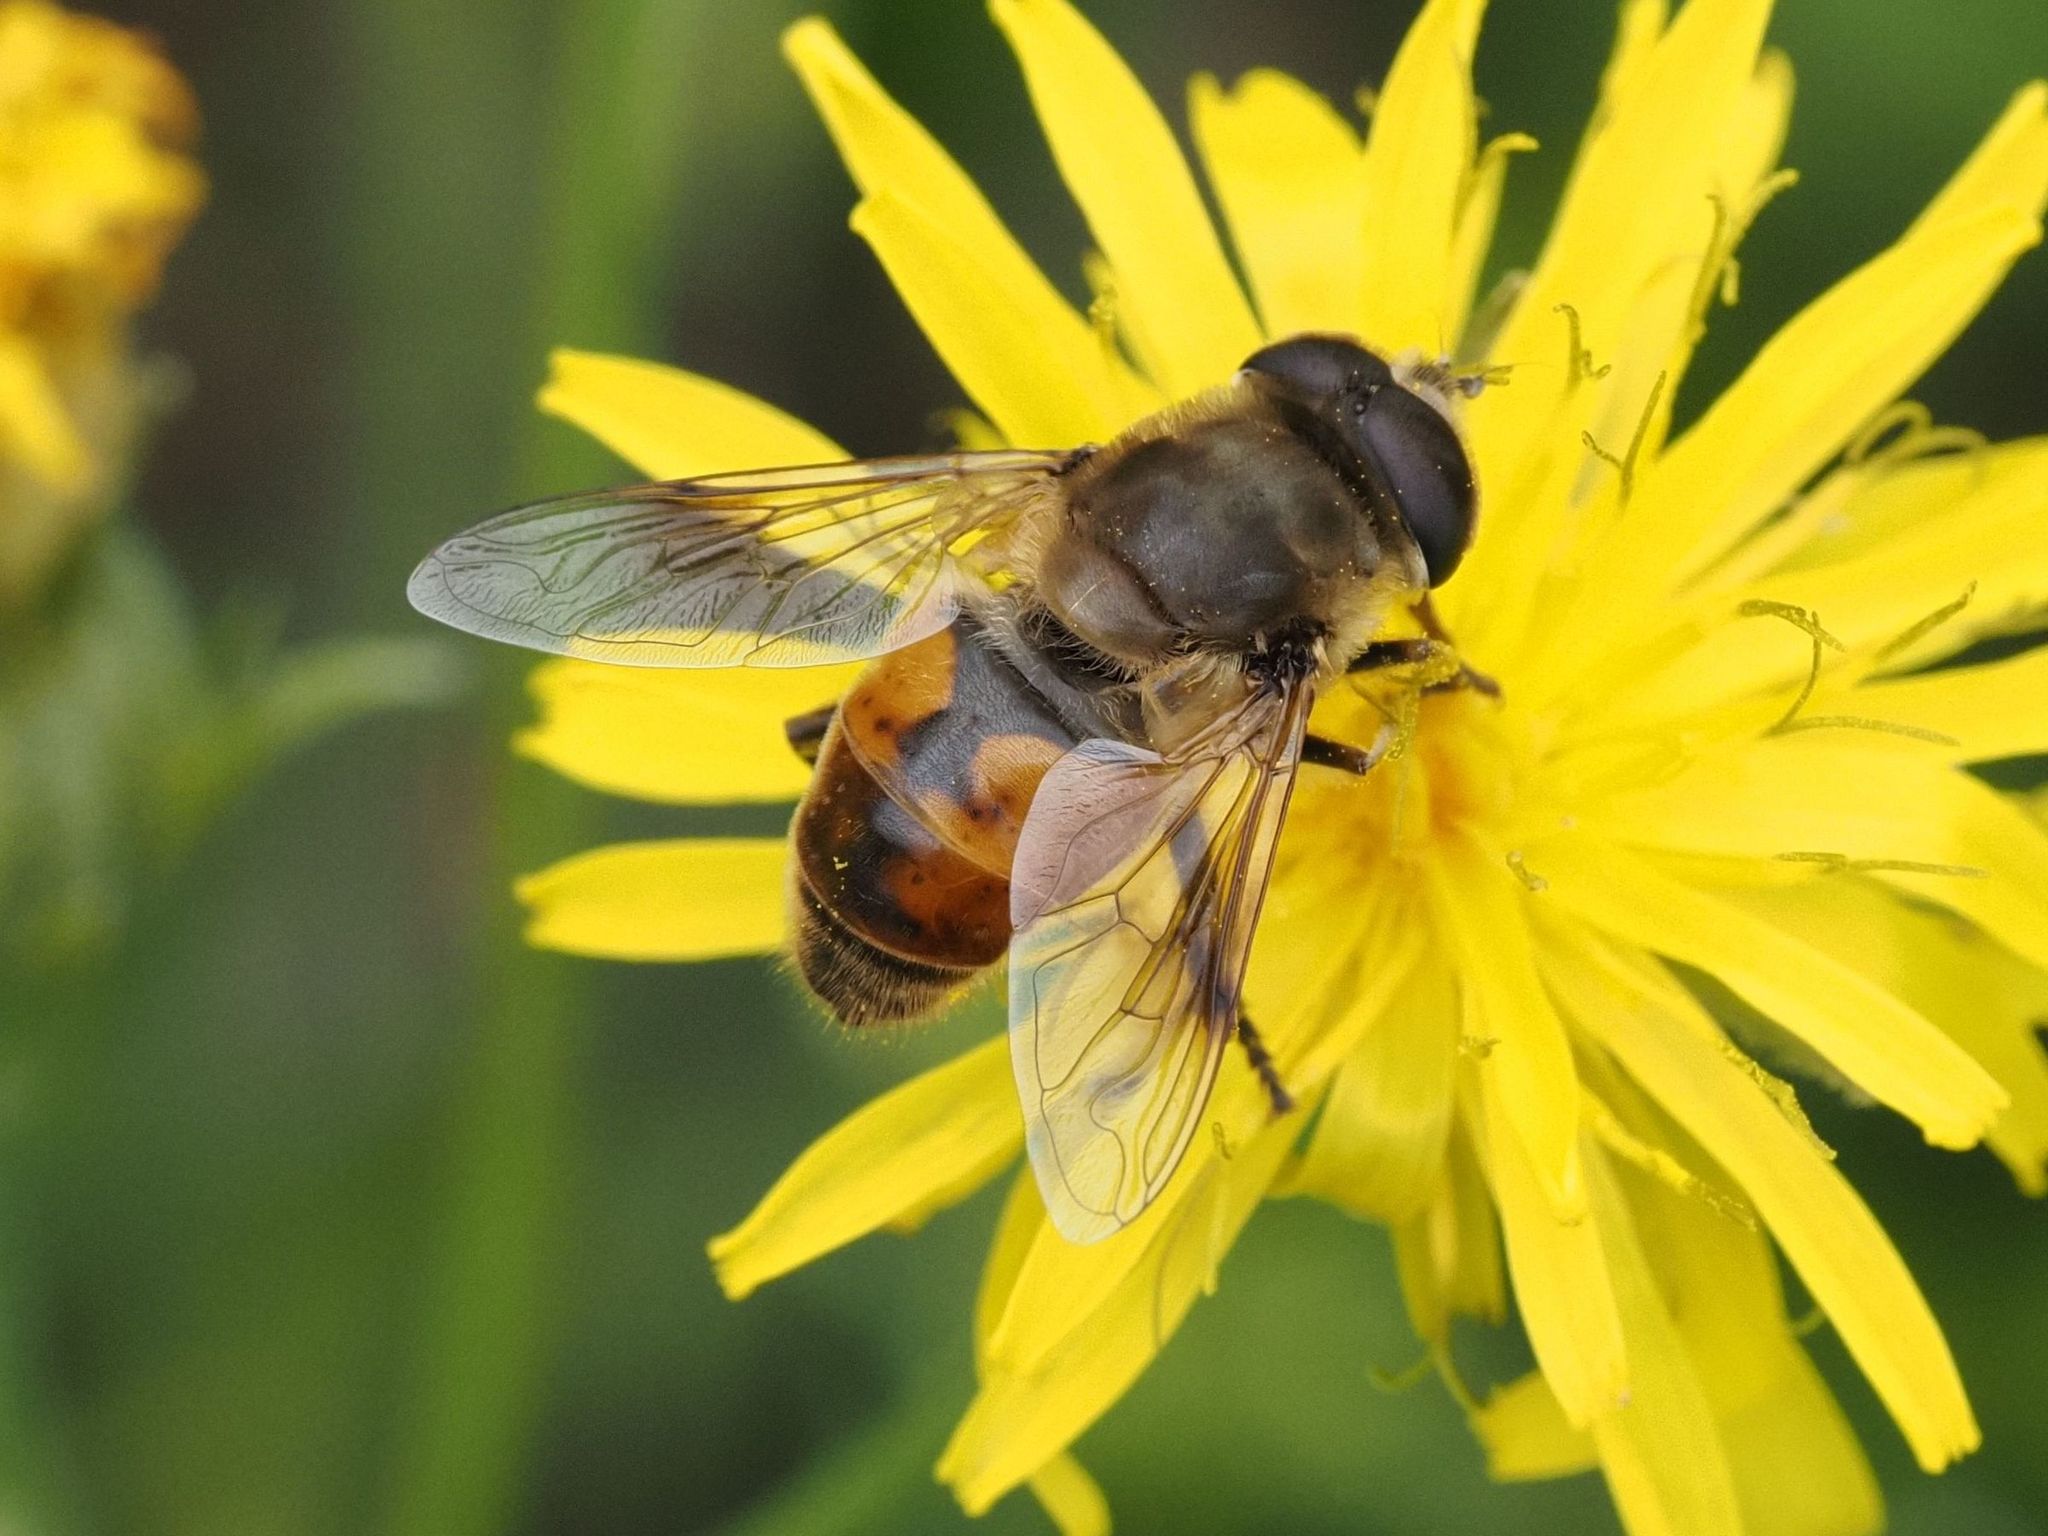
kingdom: Animalia
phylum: Arthropoda
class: Insecta
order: Diptera
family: Syrphidae
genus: Eristalis
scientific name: Eristalis tenax
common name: Drone fly
